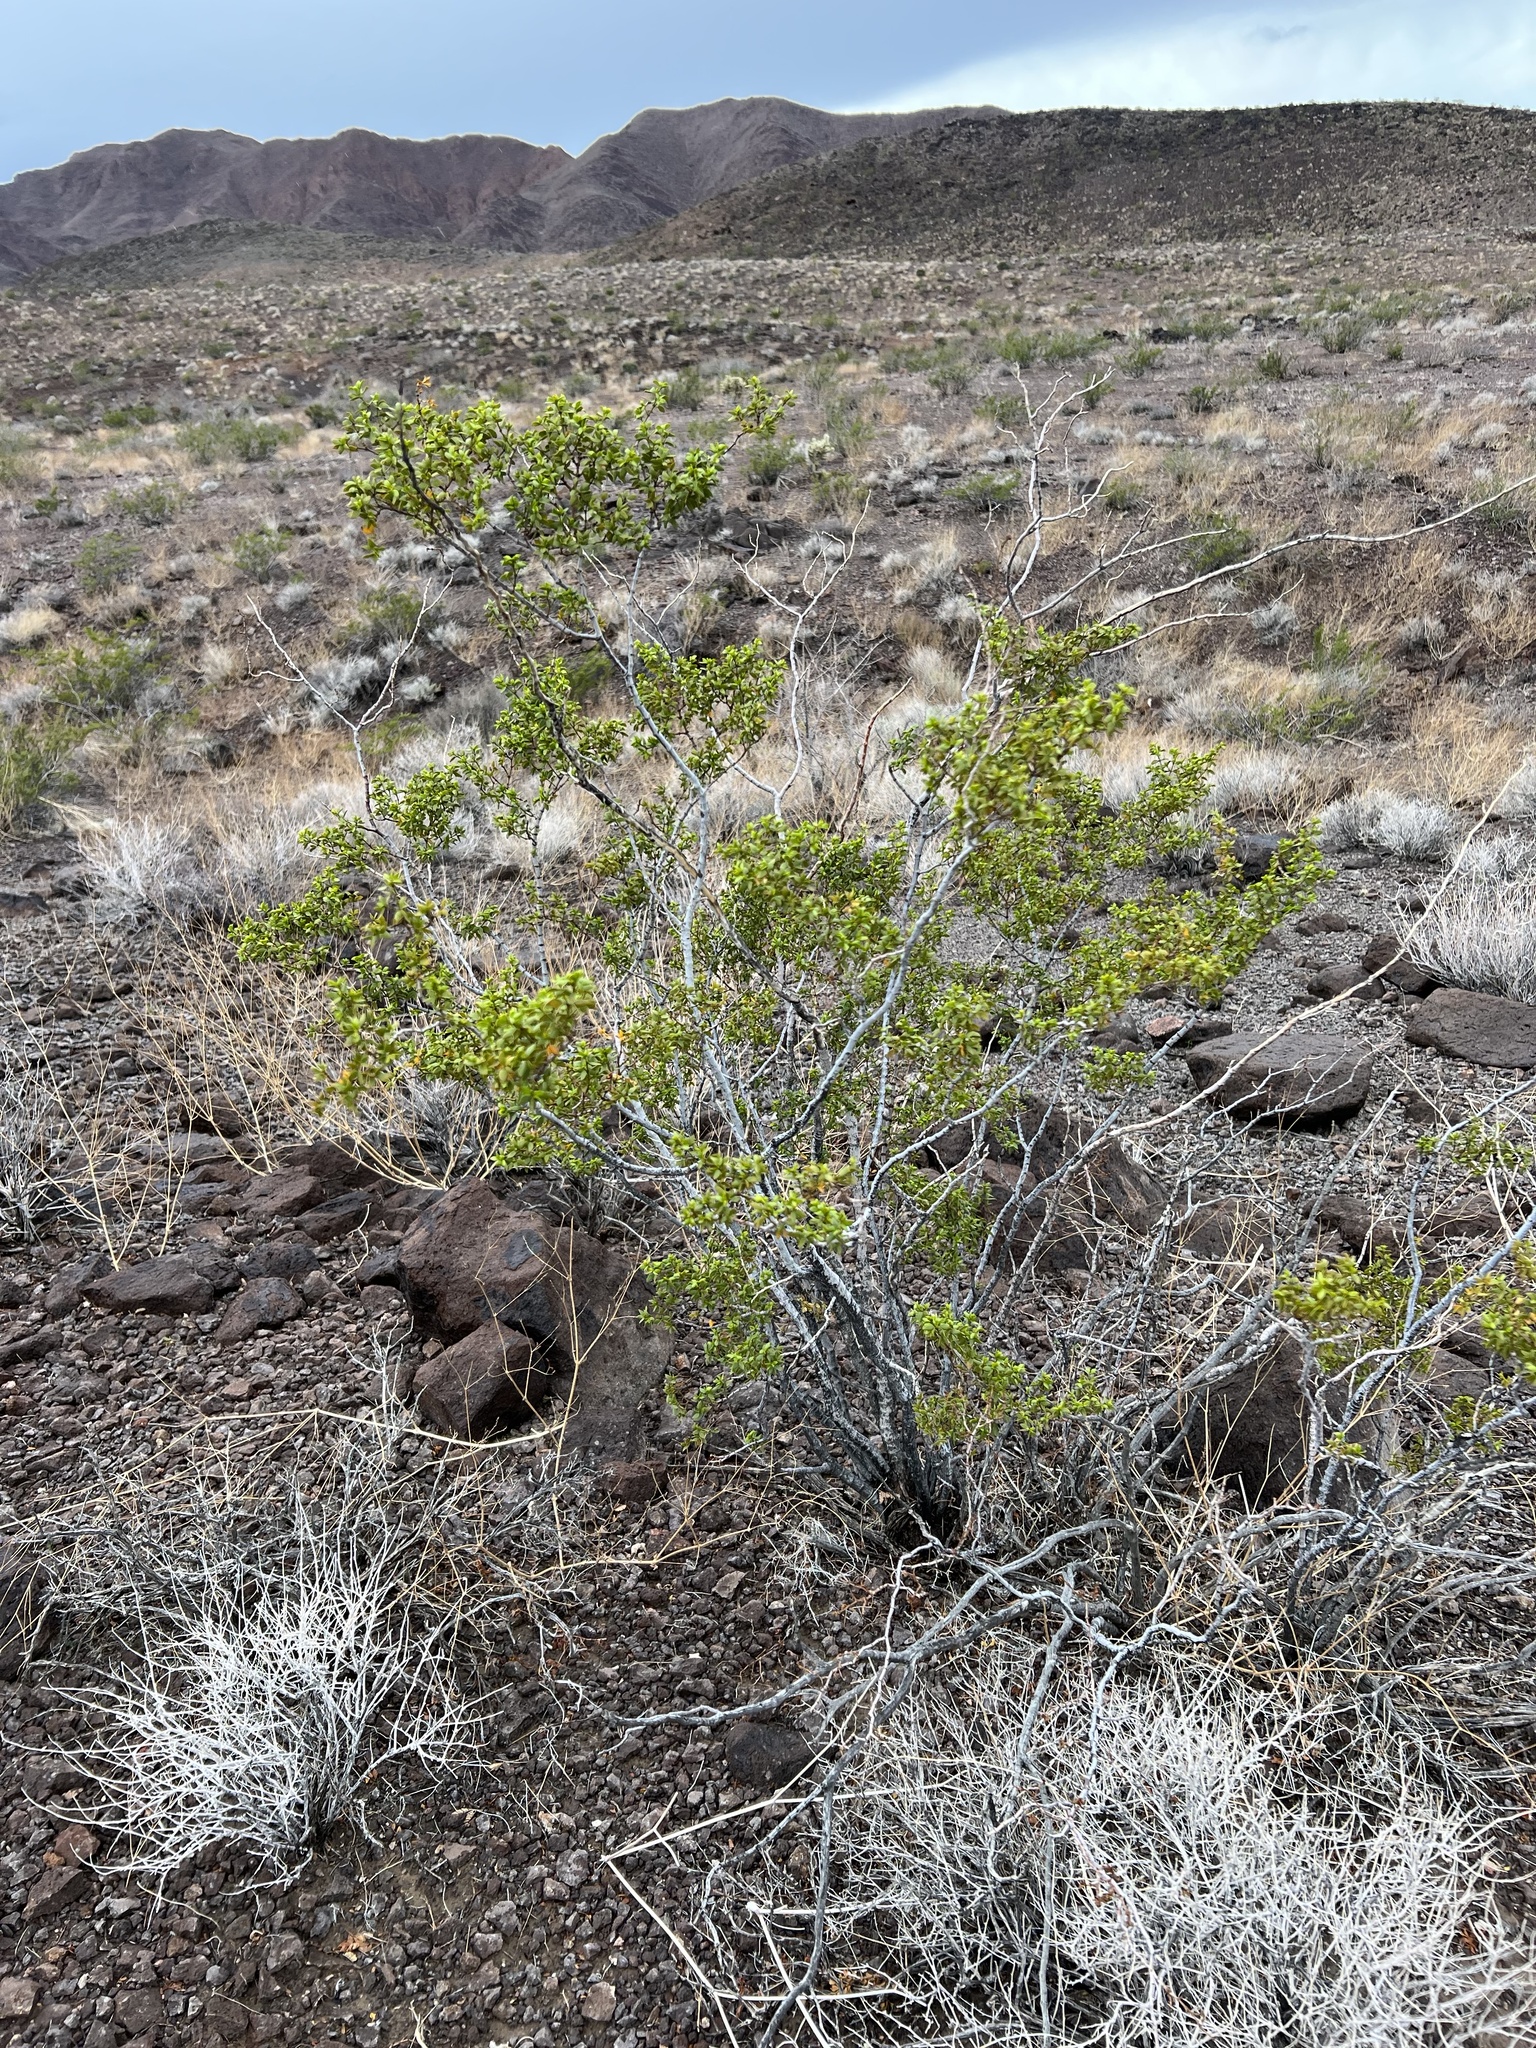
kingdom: Plantae
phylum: Tracheophyta
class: Magnoliopsida
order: Zygophyllales
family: Zygophyllaceae
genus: Larrea
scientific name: Larrea tridentata
